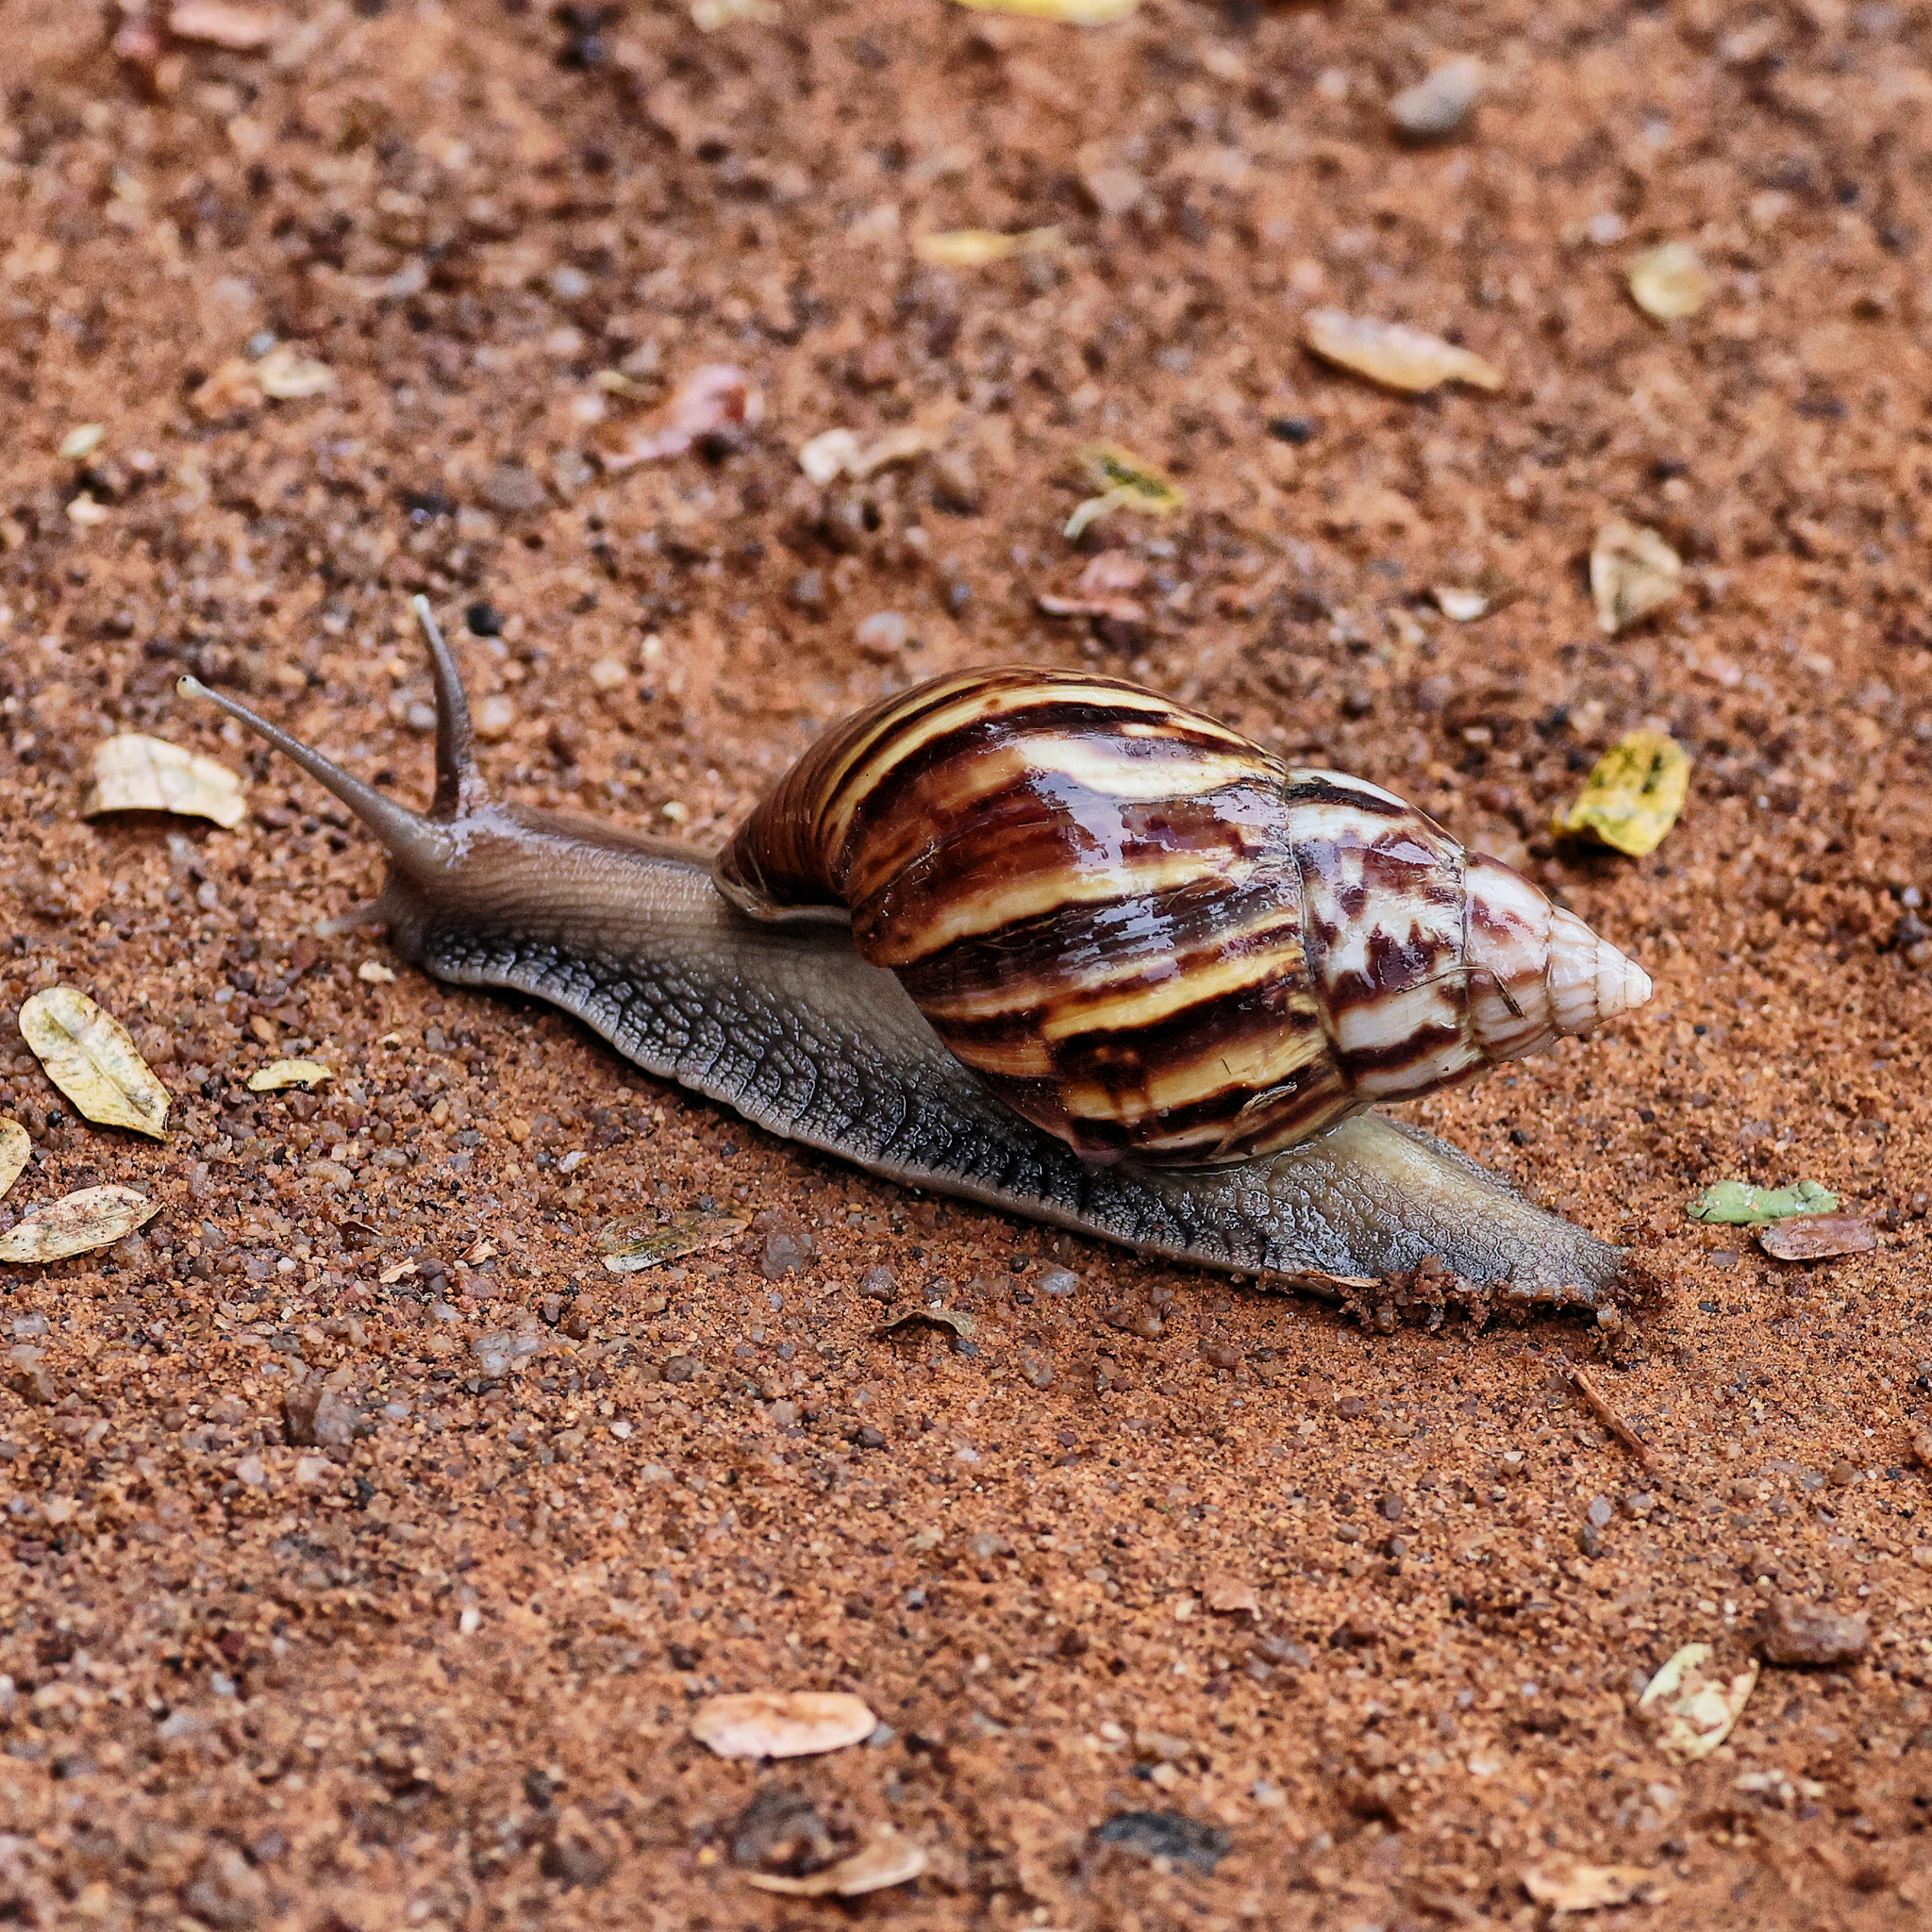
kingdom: Animalia
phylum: Mollusca
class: Gastropoda
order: Stylommatophora
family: Achatinidae
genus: Lissachatina
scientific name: Lissachatina fulica
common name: Giant african snail
